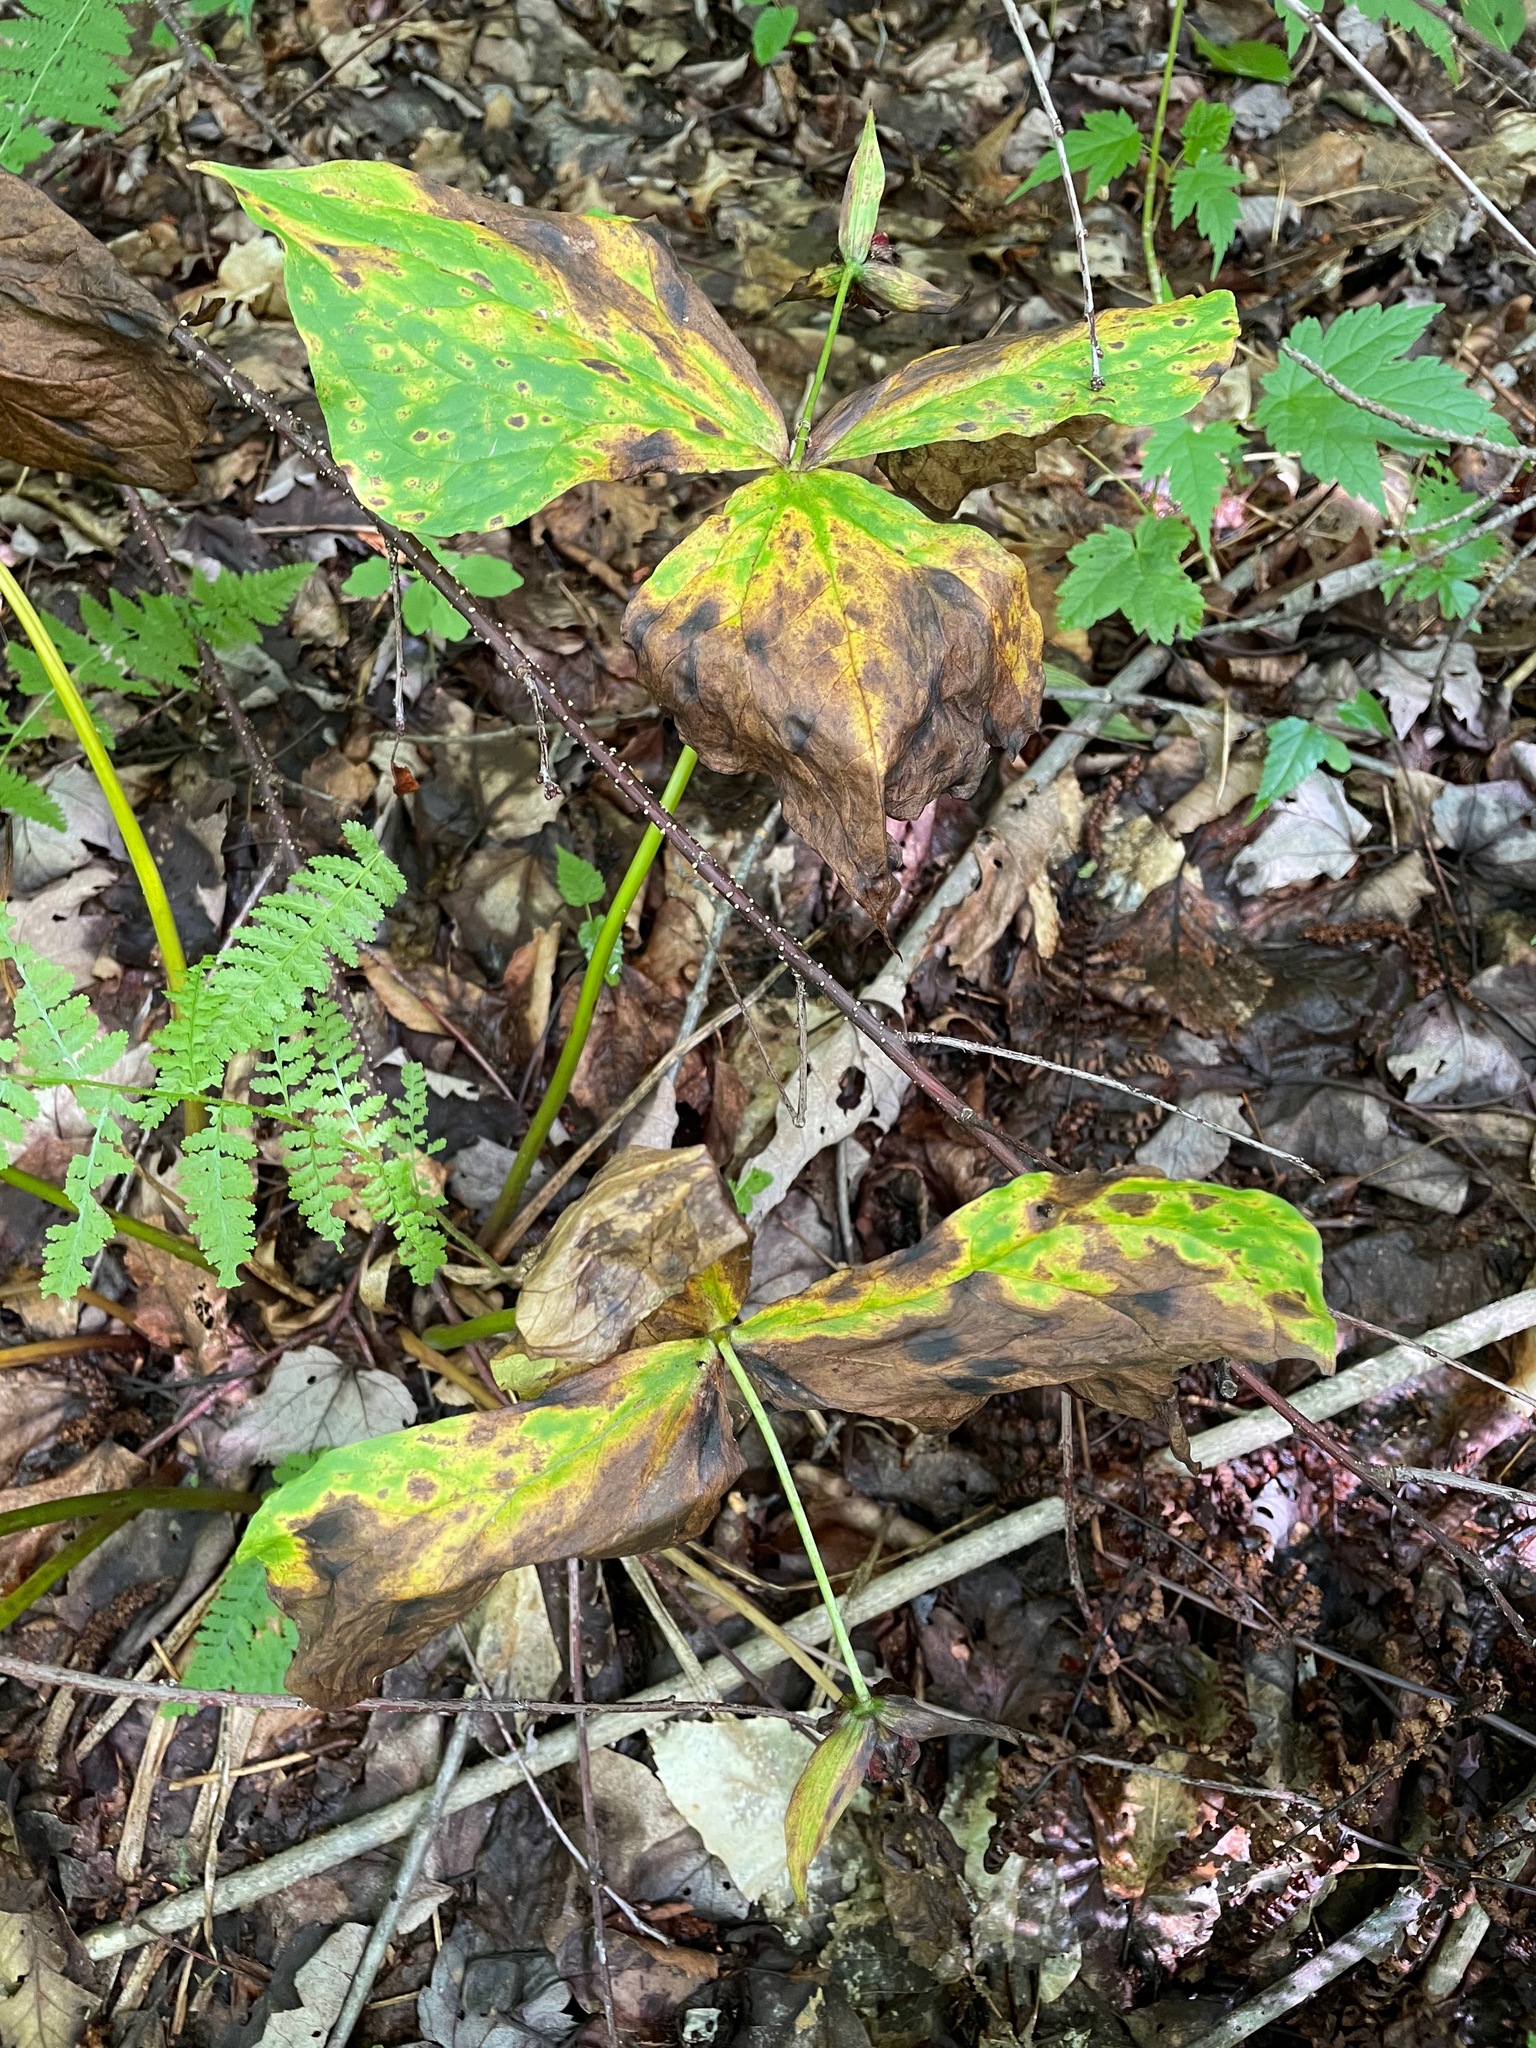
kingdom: Plantae
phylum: Tracheophyta
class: Liliopsida
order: Liliales
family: Melanthiaceae
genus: Trillium
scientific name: Trillium erectum
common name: Purple trillium
